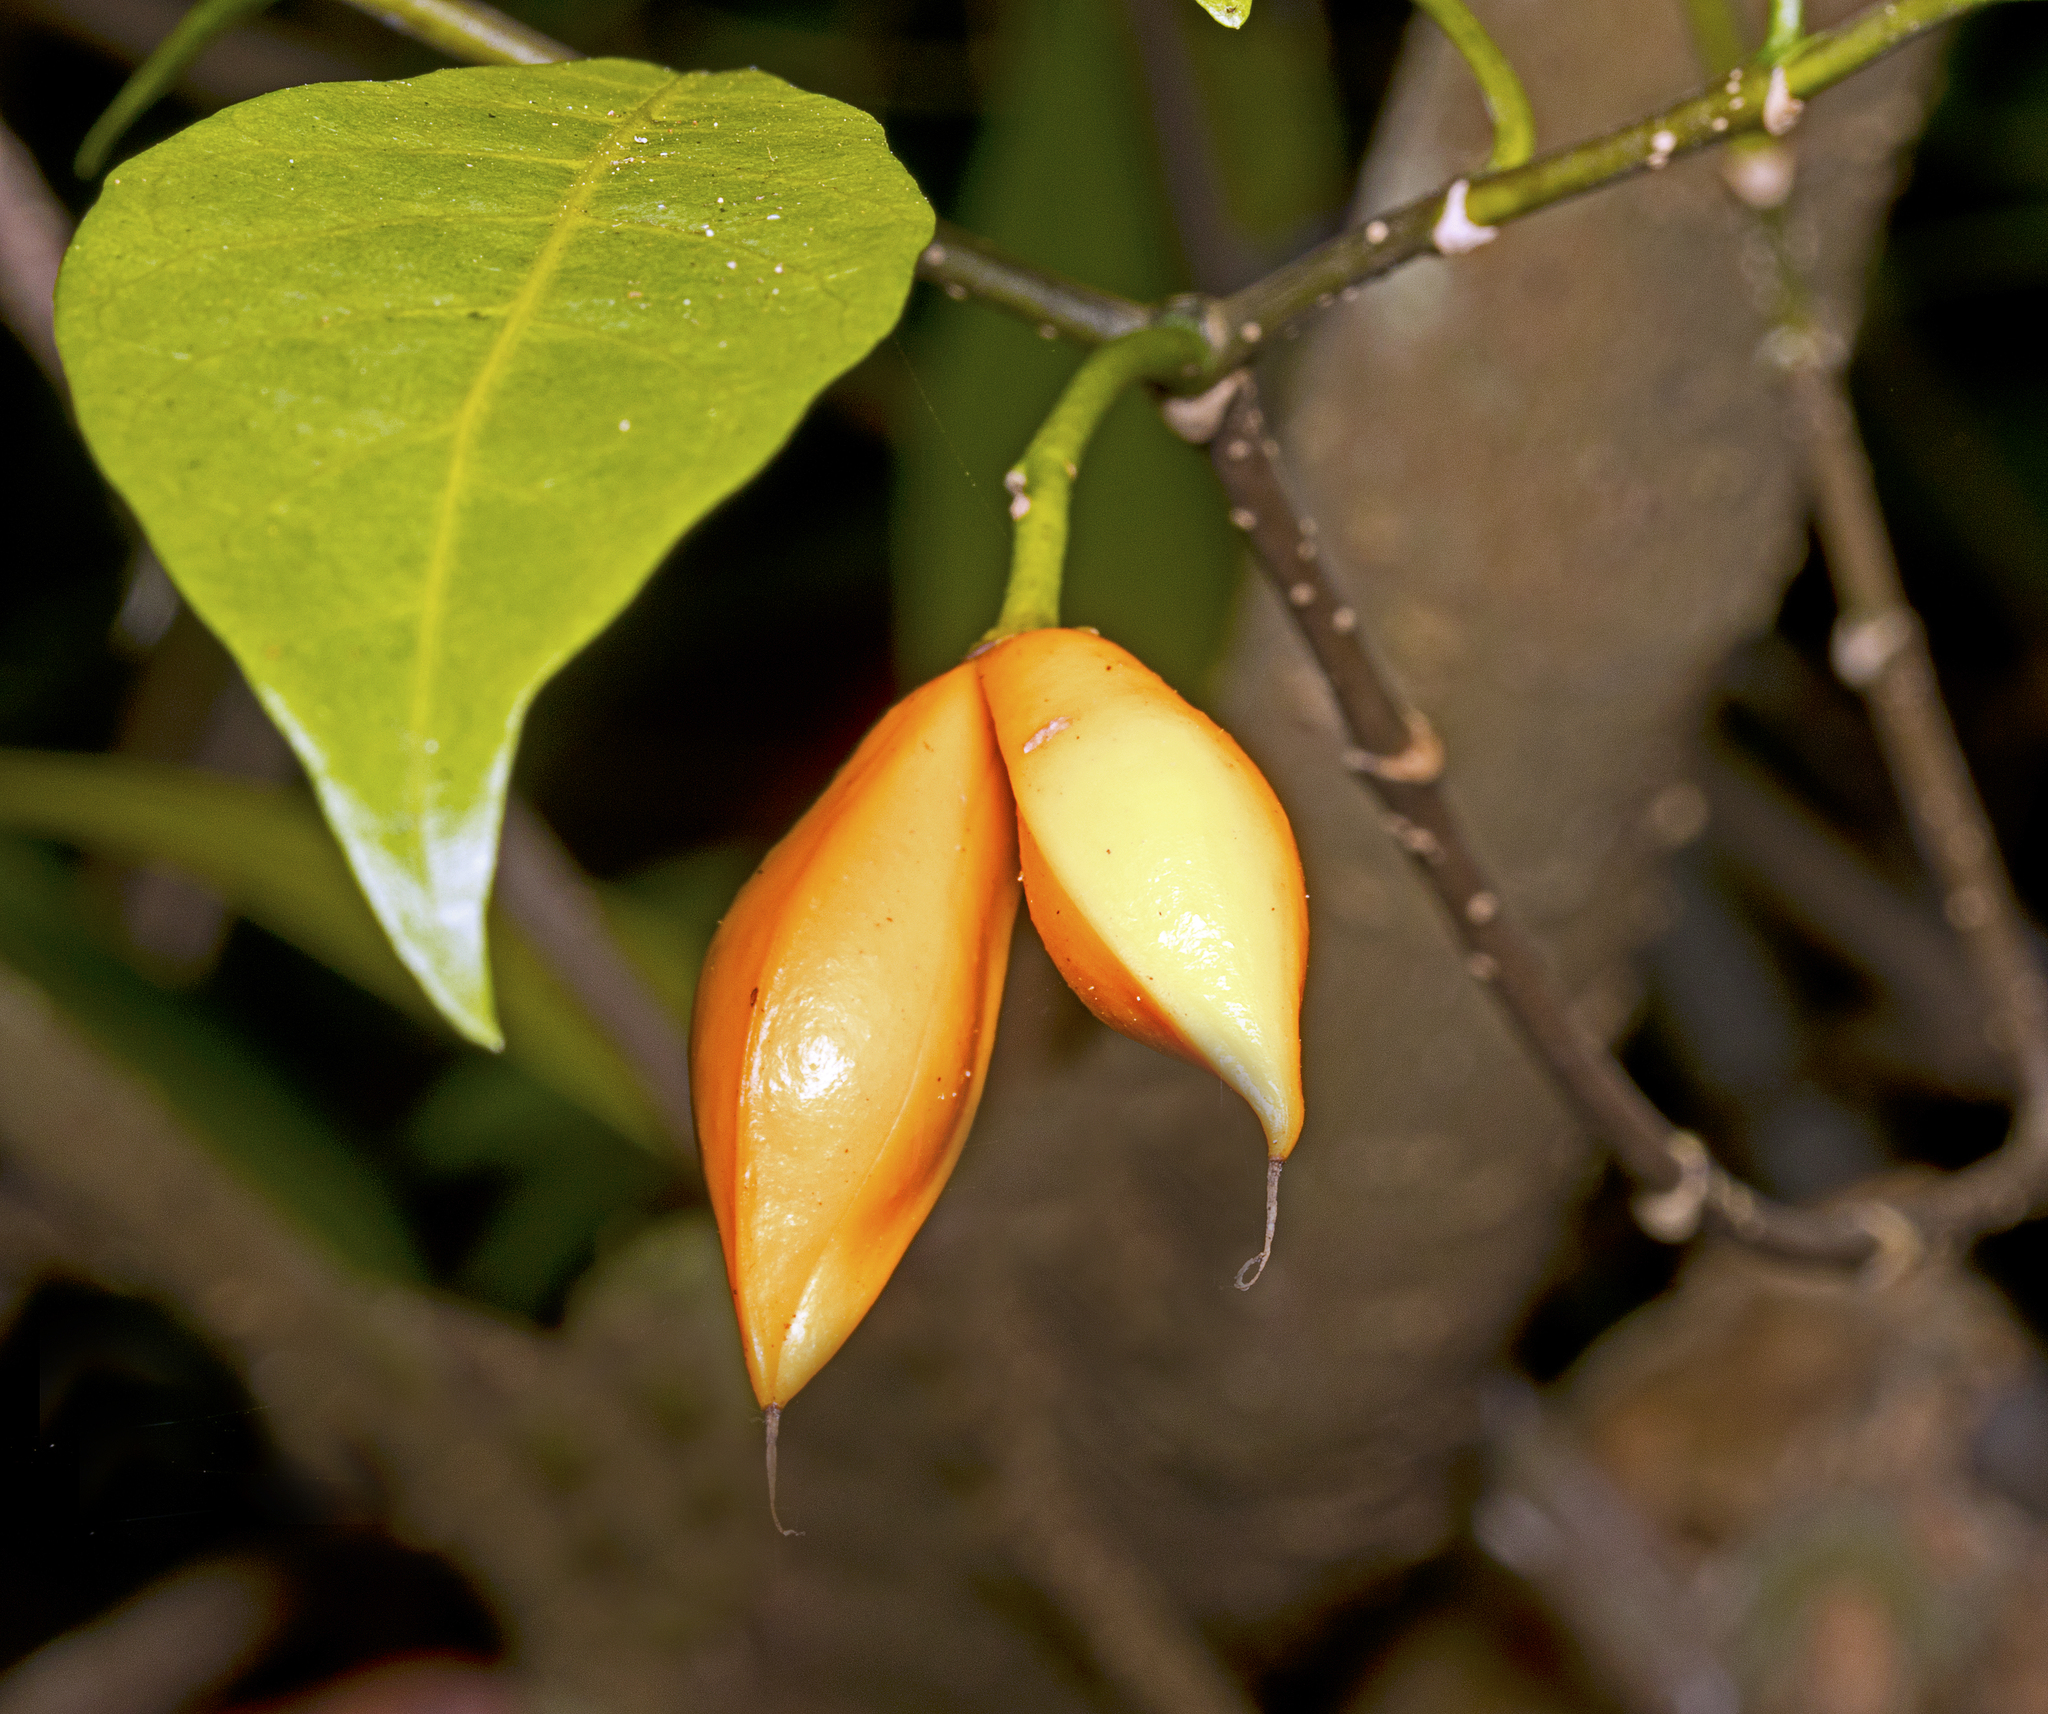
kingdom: Plantae
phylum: Tracheophyta
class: Magnoliopsida
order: Gentianales
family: Apocynaceae
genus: Tabernaemontana
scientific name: Tabernaemontana pandacaqui
